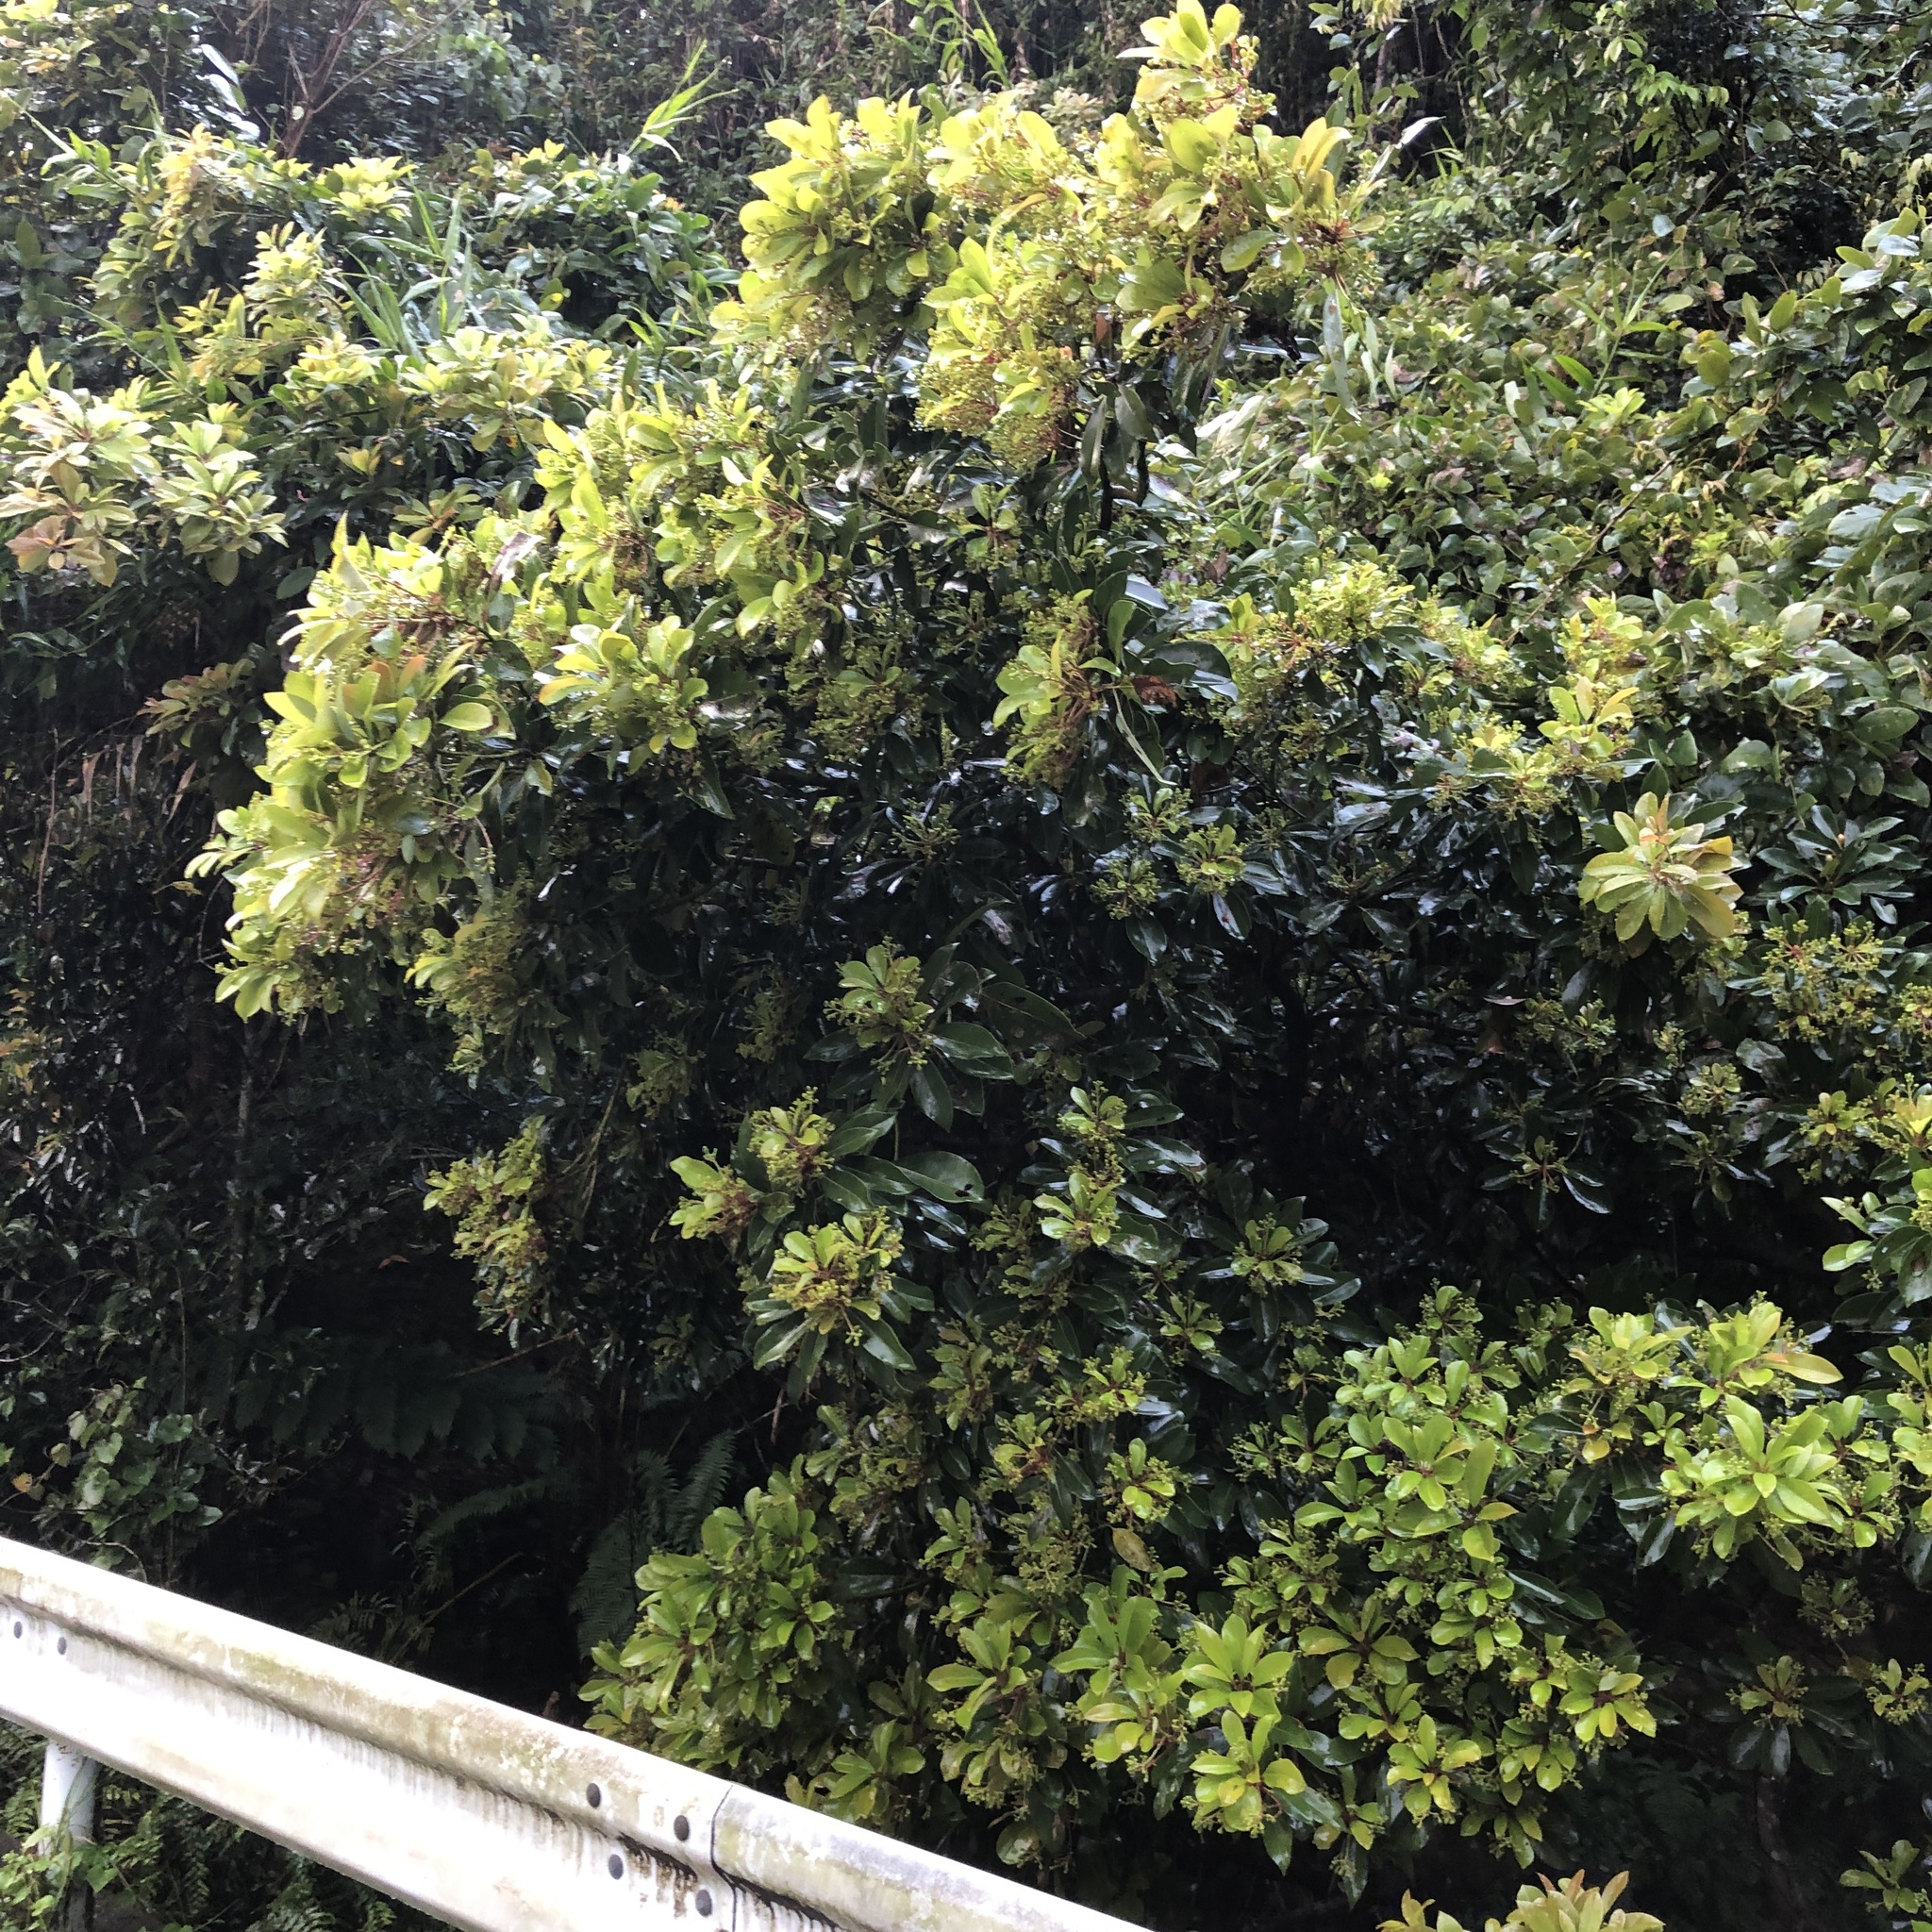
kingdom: Plantae
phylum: Tracheophyta
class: Magnoliopsida
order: Laurales
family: Lauraceae
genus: Machilus
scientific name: Machilus thunbergii
